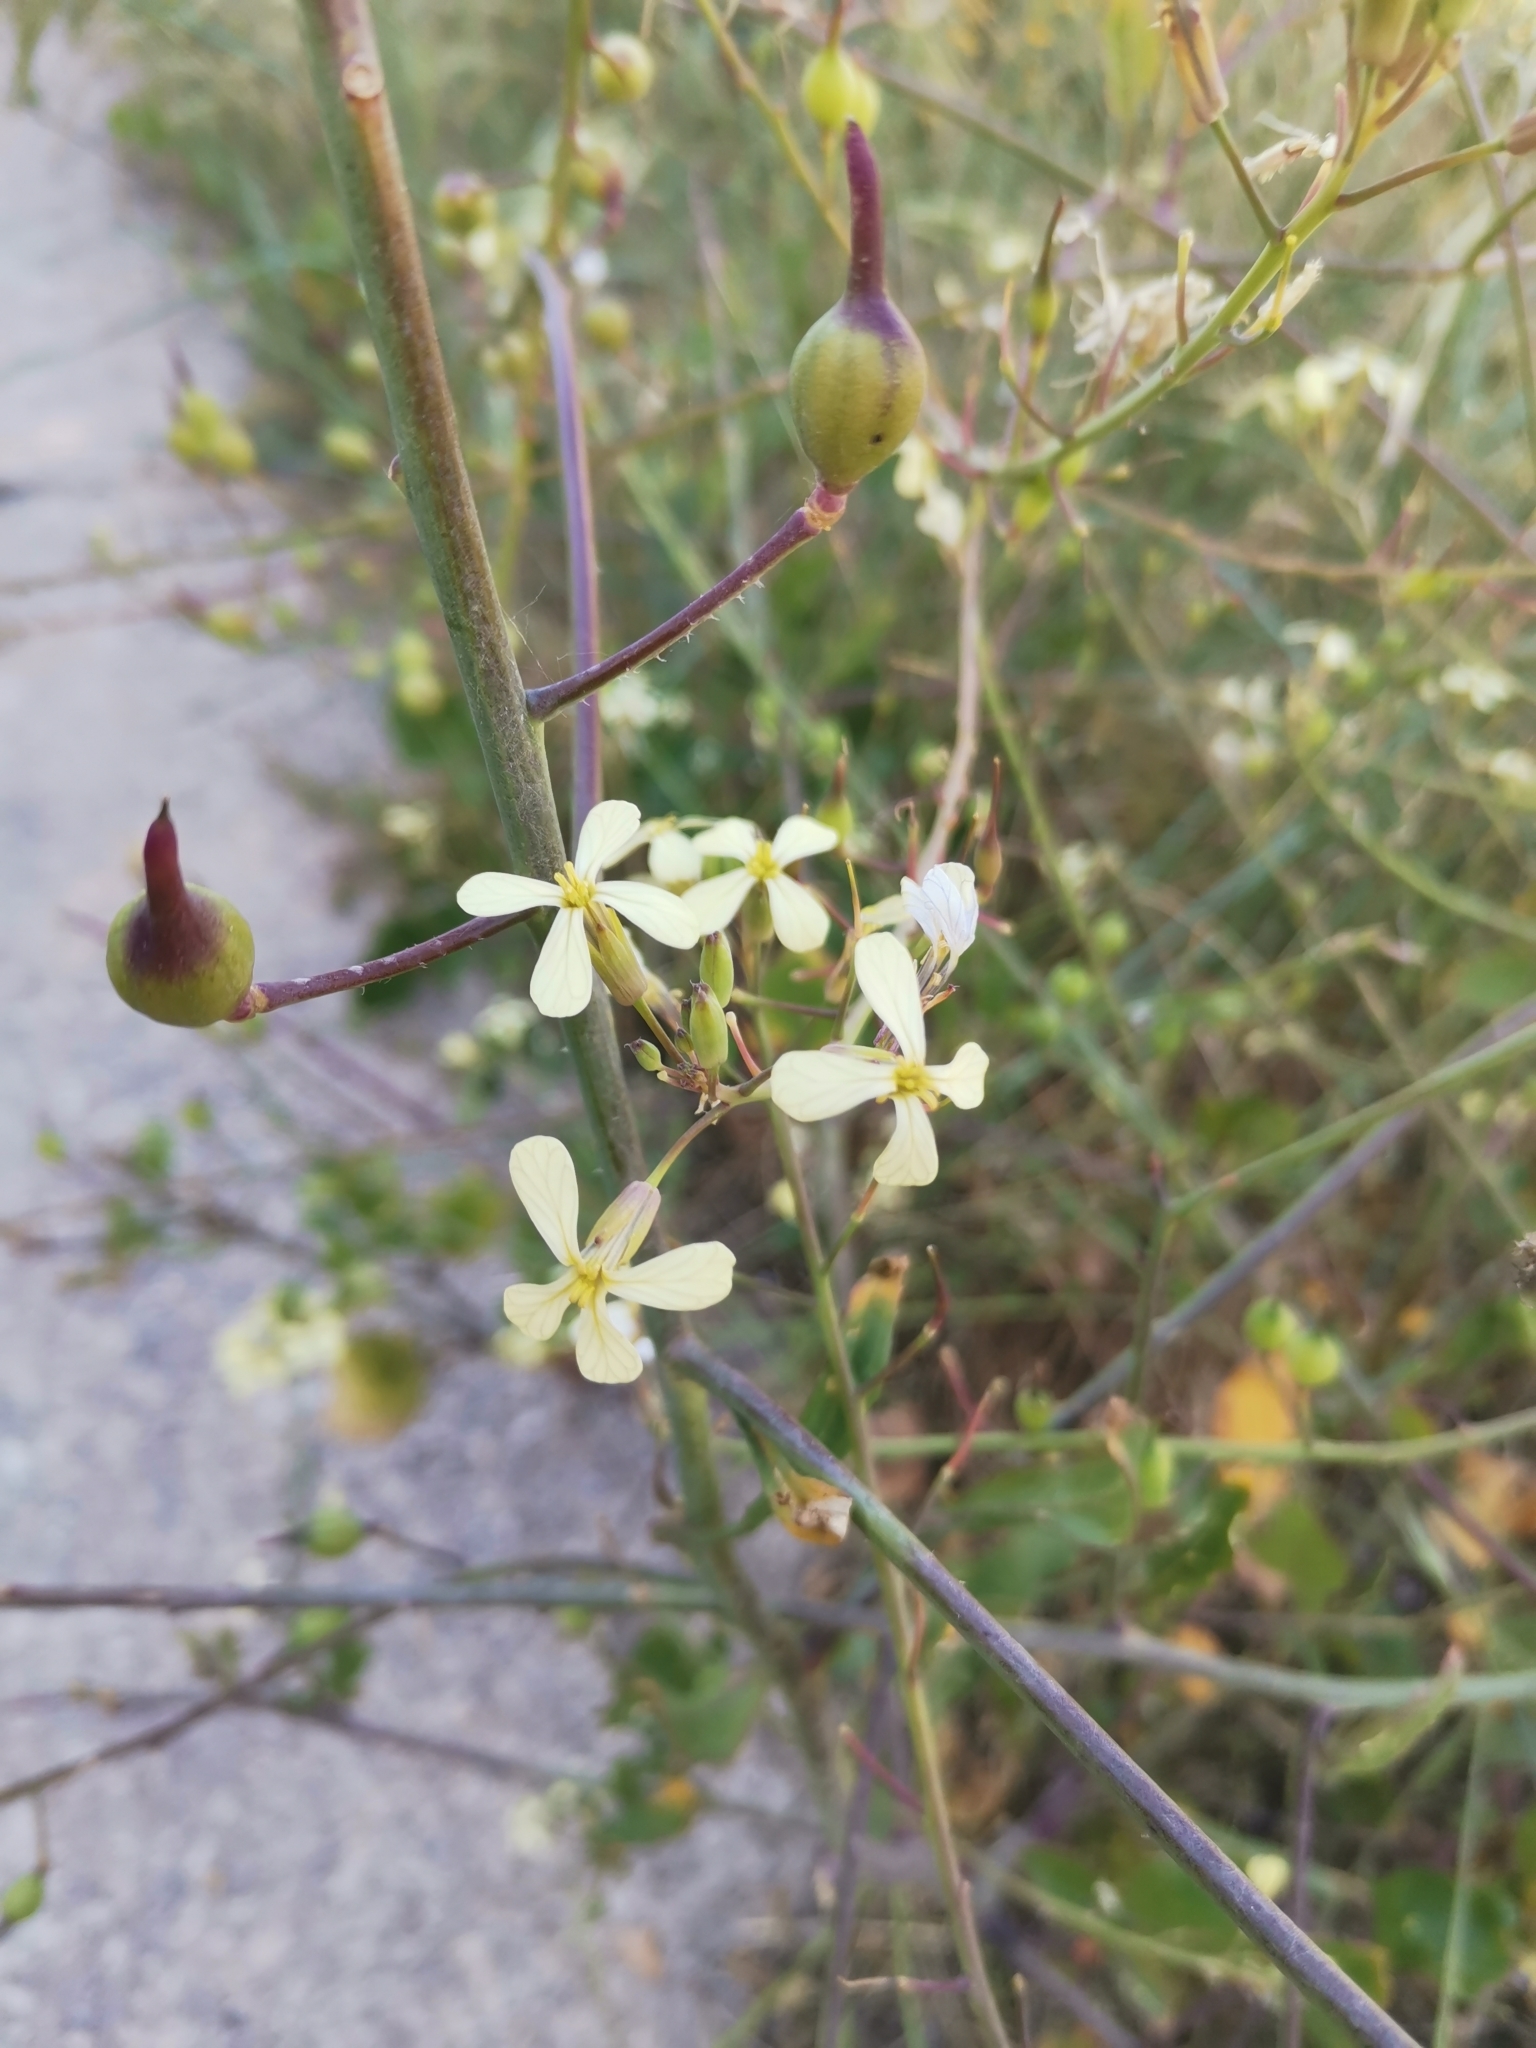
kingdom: Plantae
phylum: Tracheophyta
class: Magnoliopsida
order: Brassicales
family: Brassicaceae
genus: Raphanus
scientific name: Raphanus raphanistrum
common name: Wild radish
